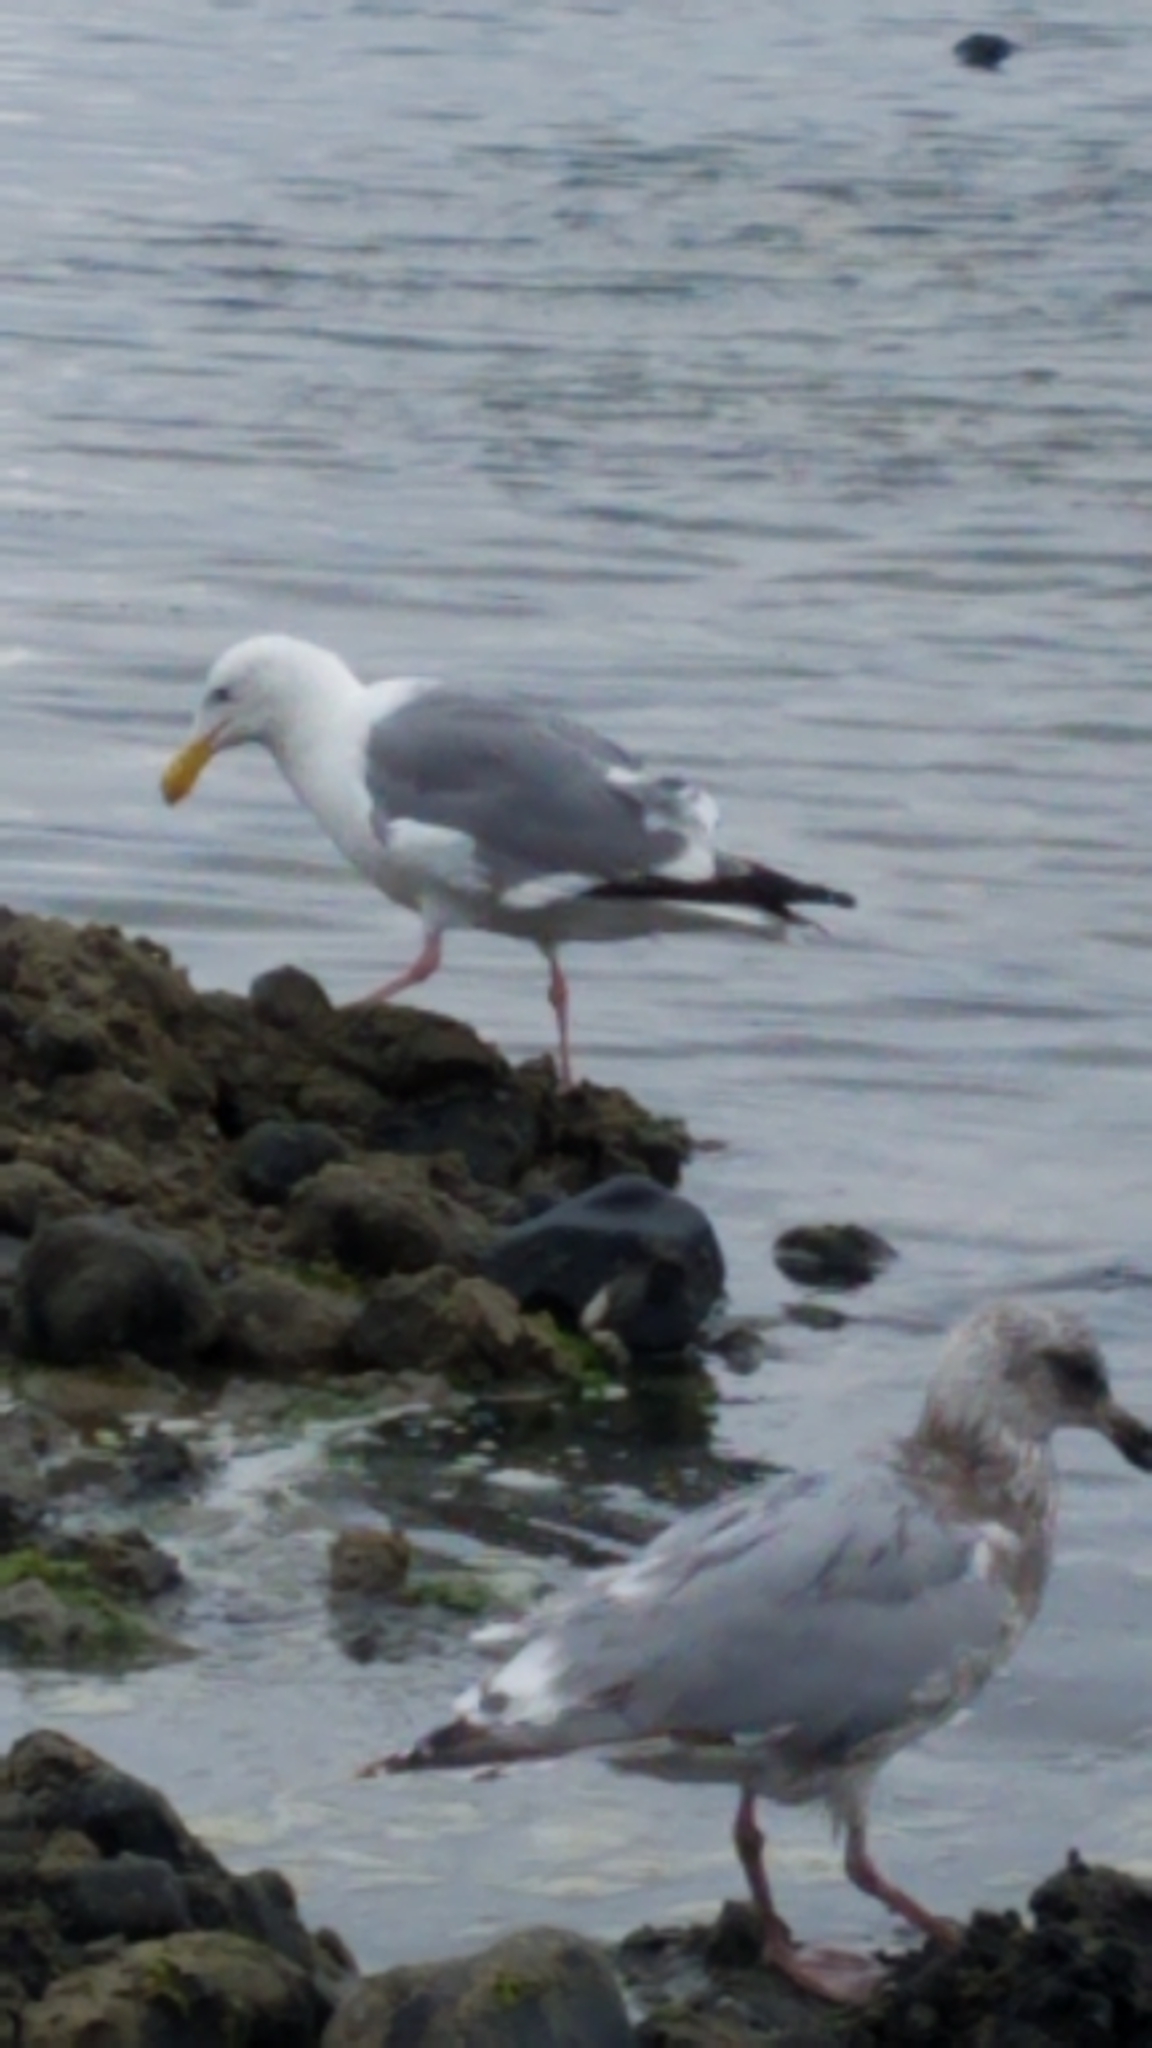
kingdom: Animalia
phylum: Chordata
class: Aves
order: Charadriiformes
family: Laridae
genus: Larus
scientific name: Larus occidentalis
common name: Western gull
